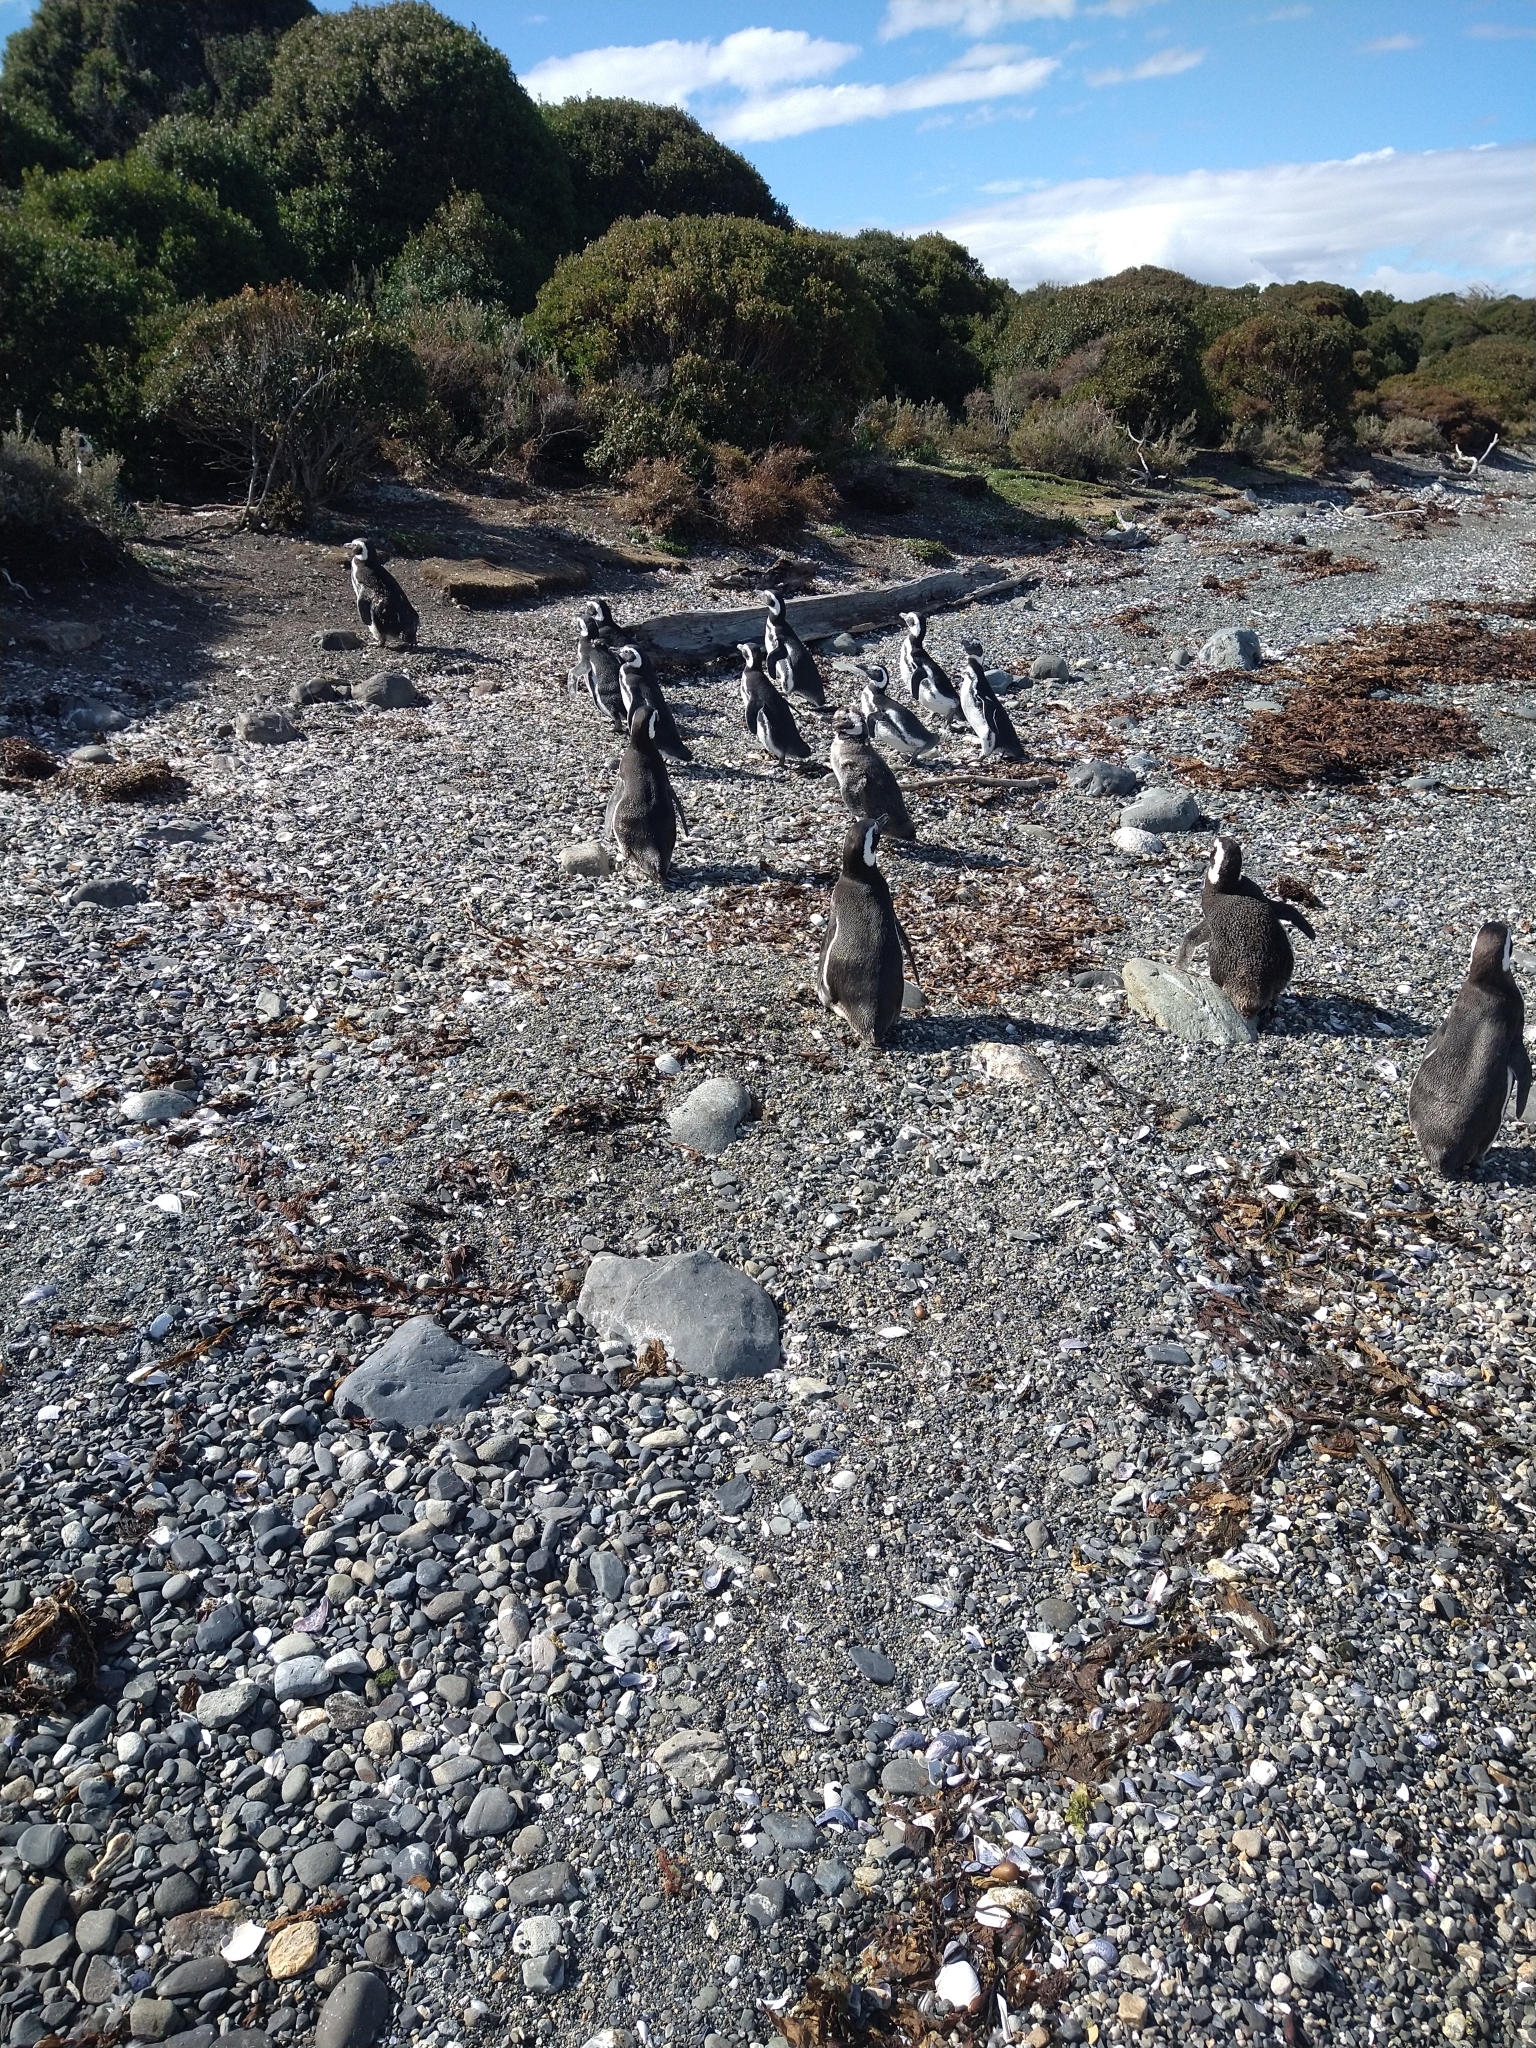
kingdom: Animalia
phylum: Chordata
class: Aves
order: Sphenisciformes
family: Spheniscidae
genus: Spheniscus
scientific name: Spheniscus magellanicus
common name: Magellanic penguin
